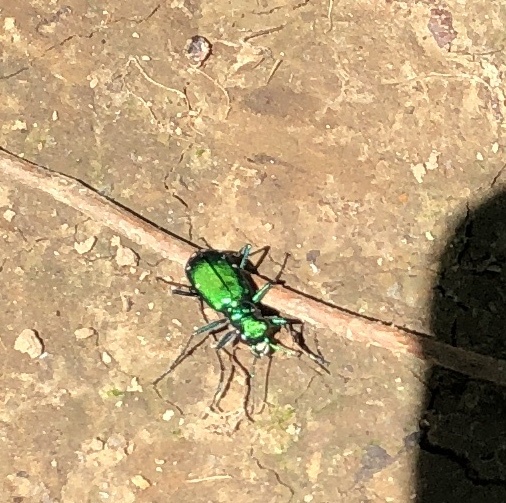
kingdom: Animalia
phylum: Arthropoda
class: Insecta
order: Coleoptera
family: Carabidae
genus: Cicindela
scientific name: Cicindela sexguttata
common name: Six-spotted tiger beetle
